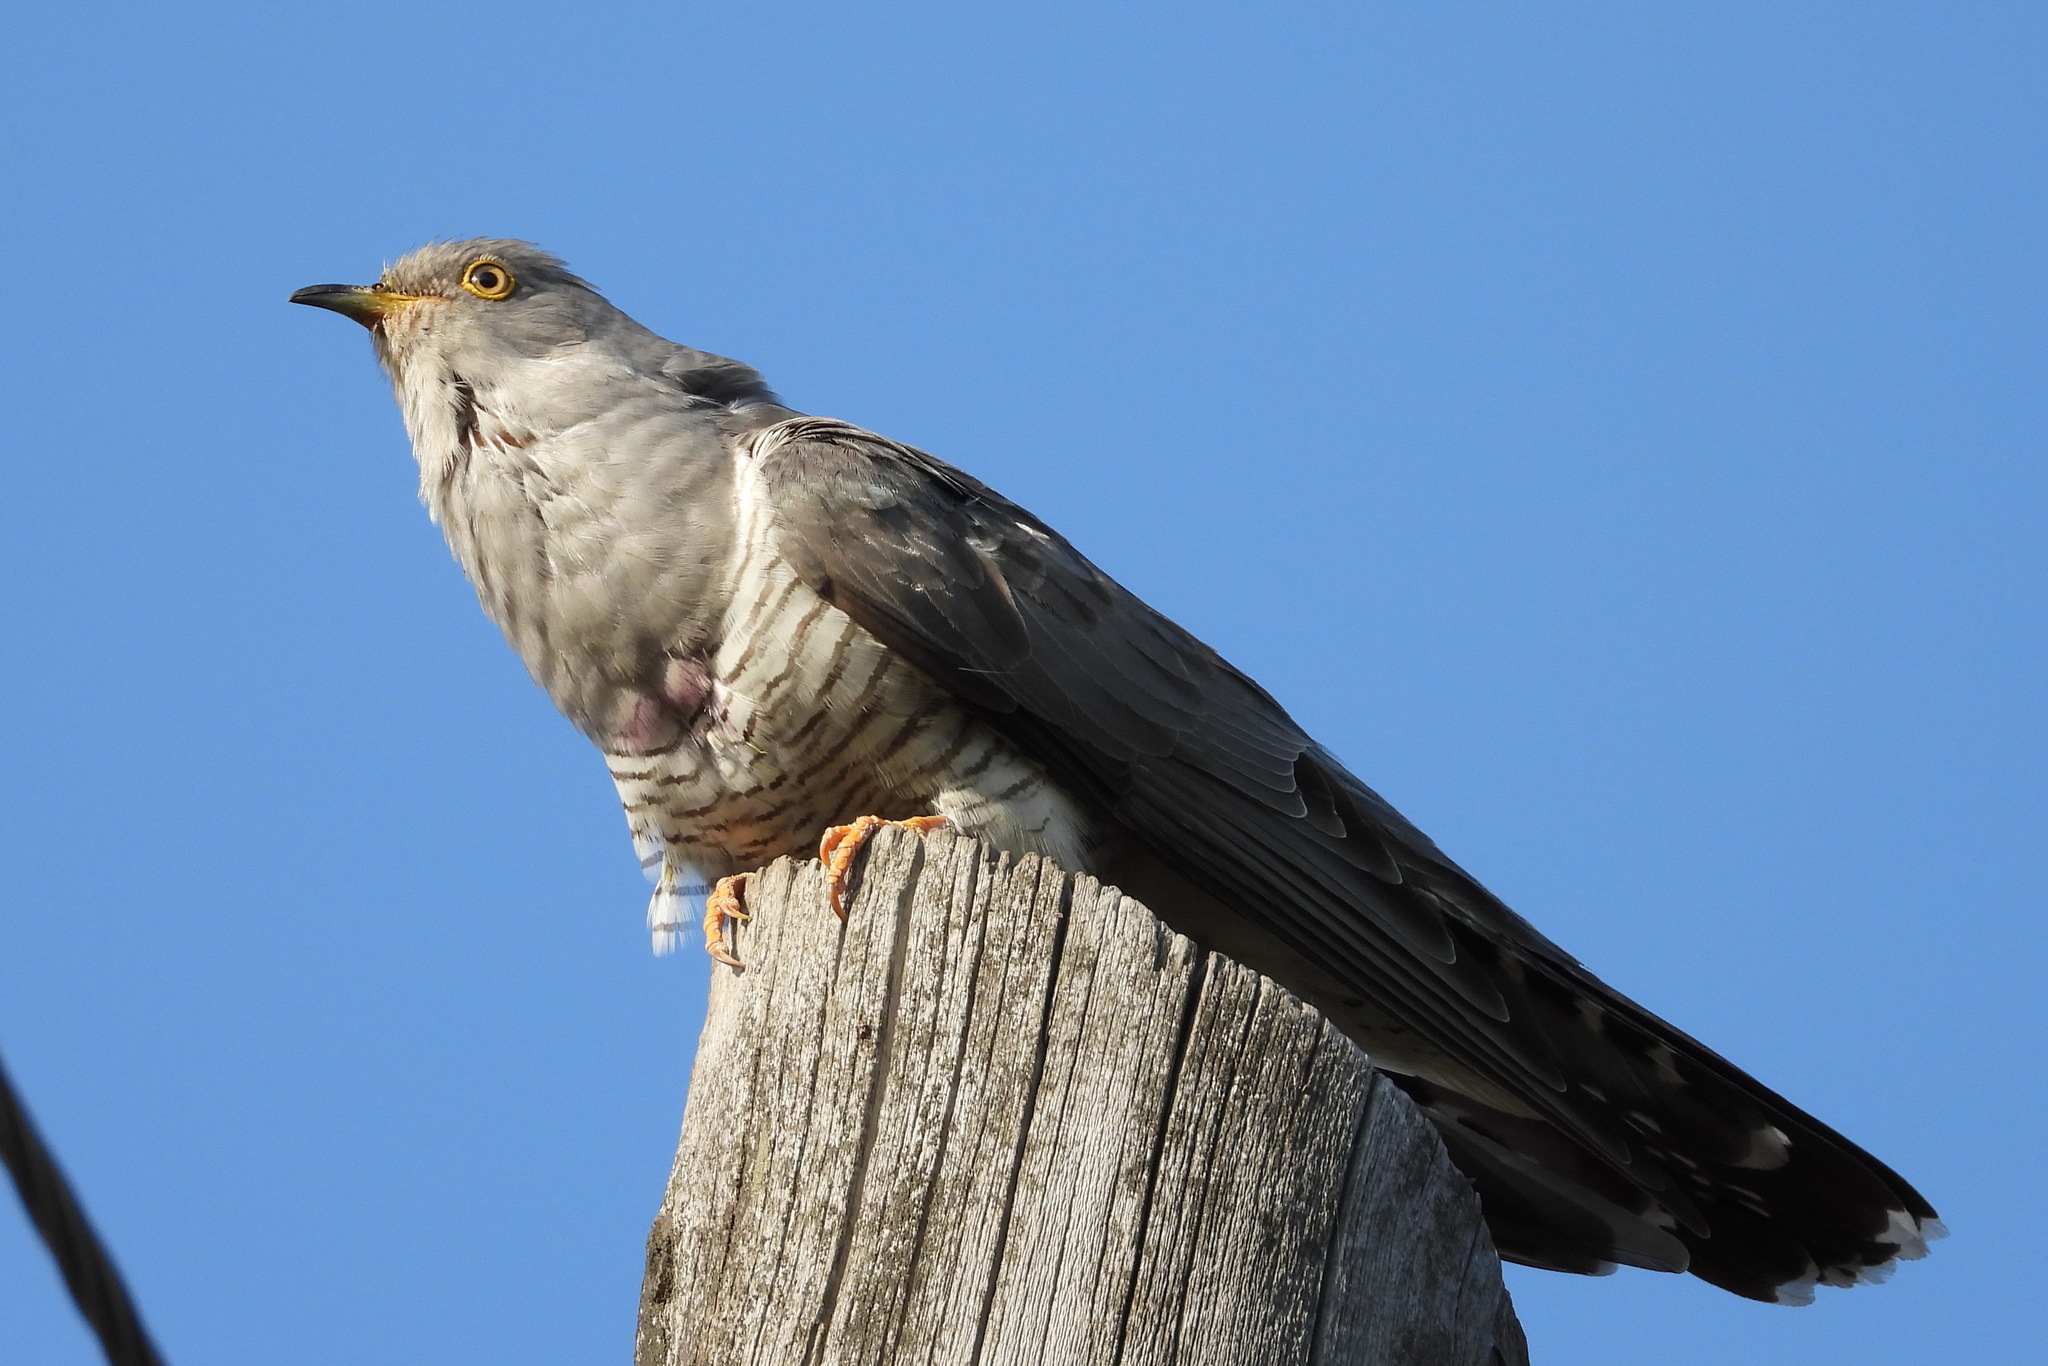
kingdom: Animalia
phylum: Chordata
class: Aves
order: Cuculiformes
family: Cuculidae
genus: Cuculus
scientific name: Cuculus canorus
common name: Common cuckoo
